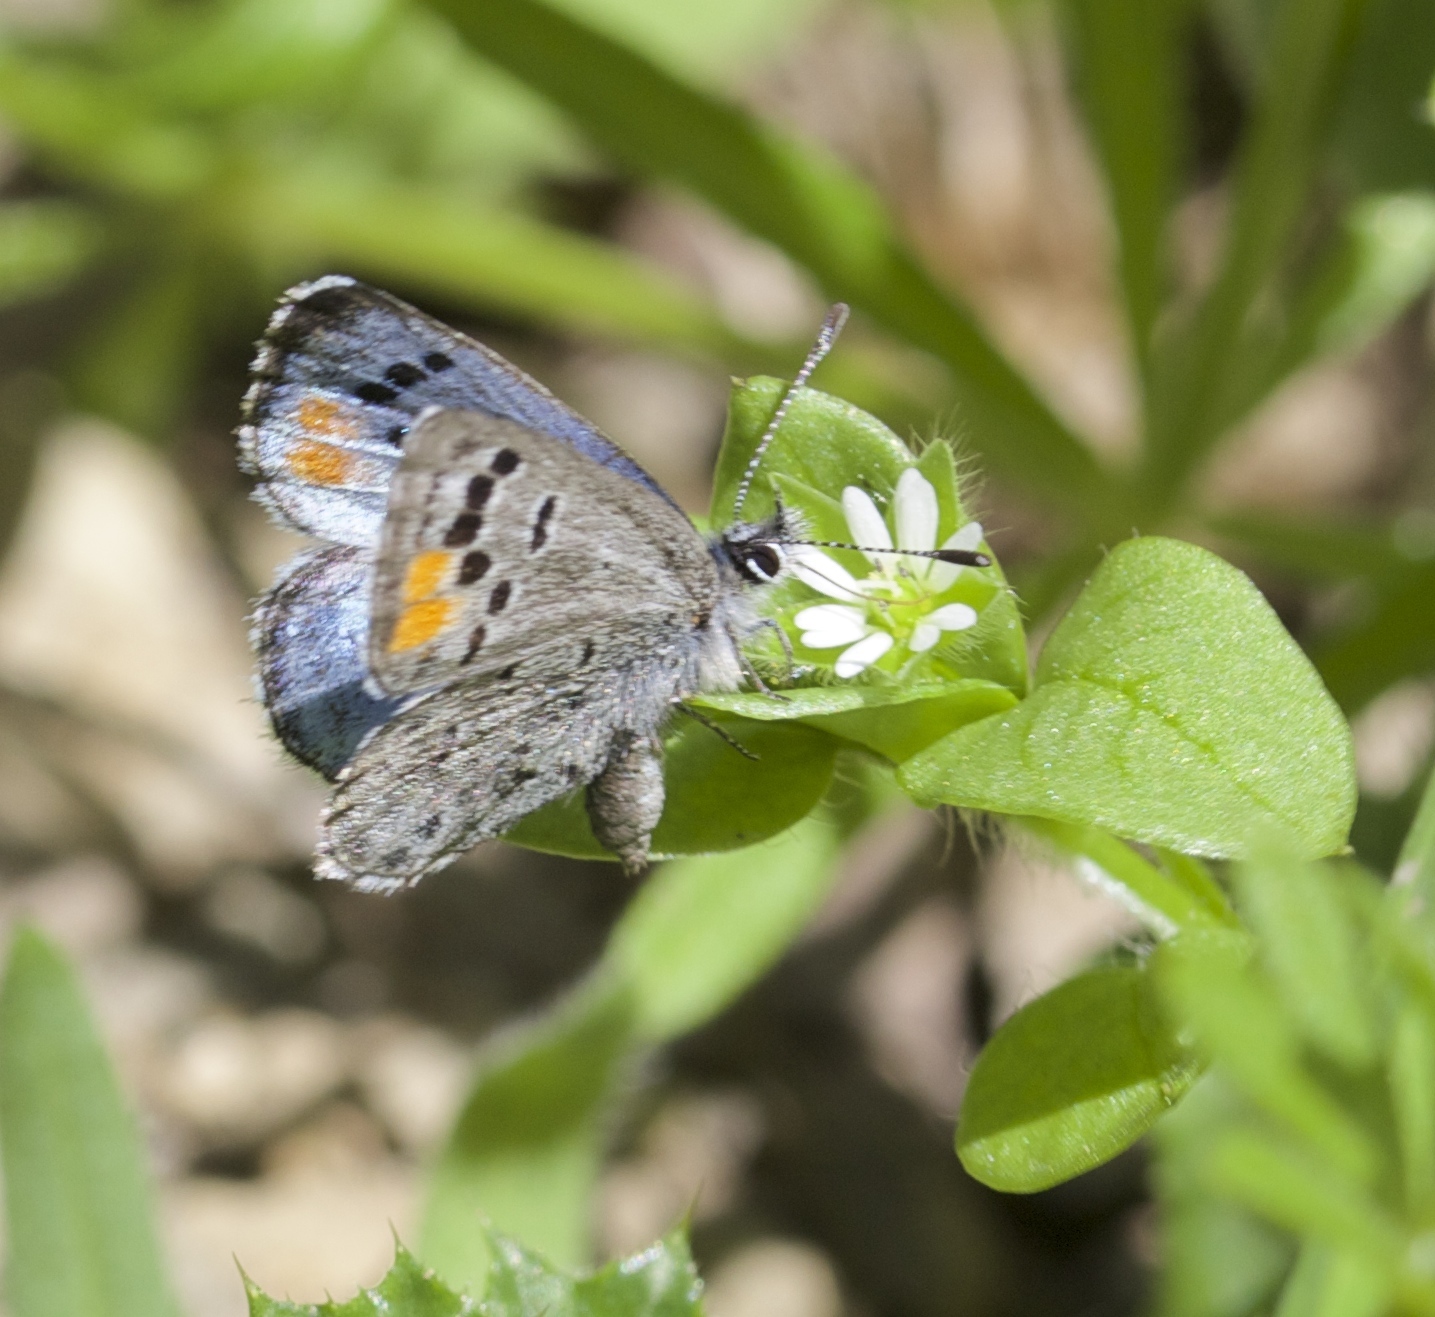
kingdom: Animalia
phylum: Arthropoda
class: Insecta
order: Lepidoptera
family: Lycaenidae
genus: Philotes
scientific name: Philotes sonorensis
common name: Sonoran blue
